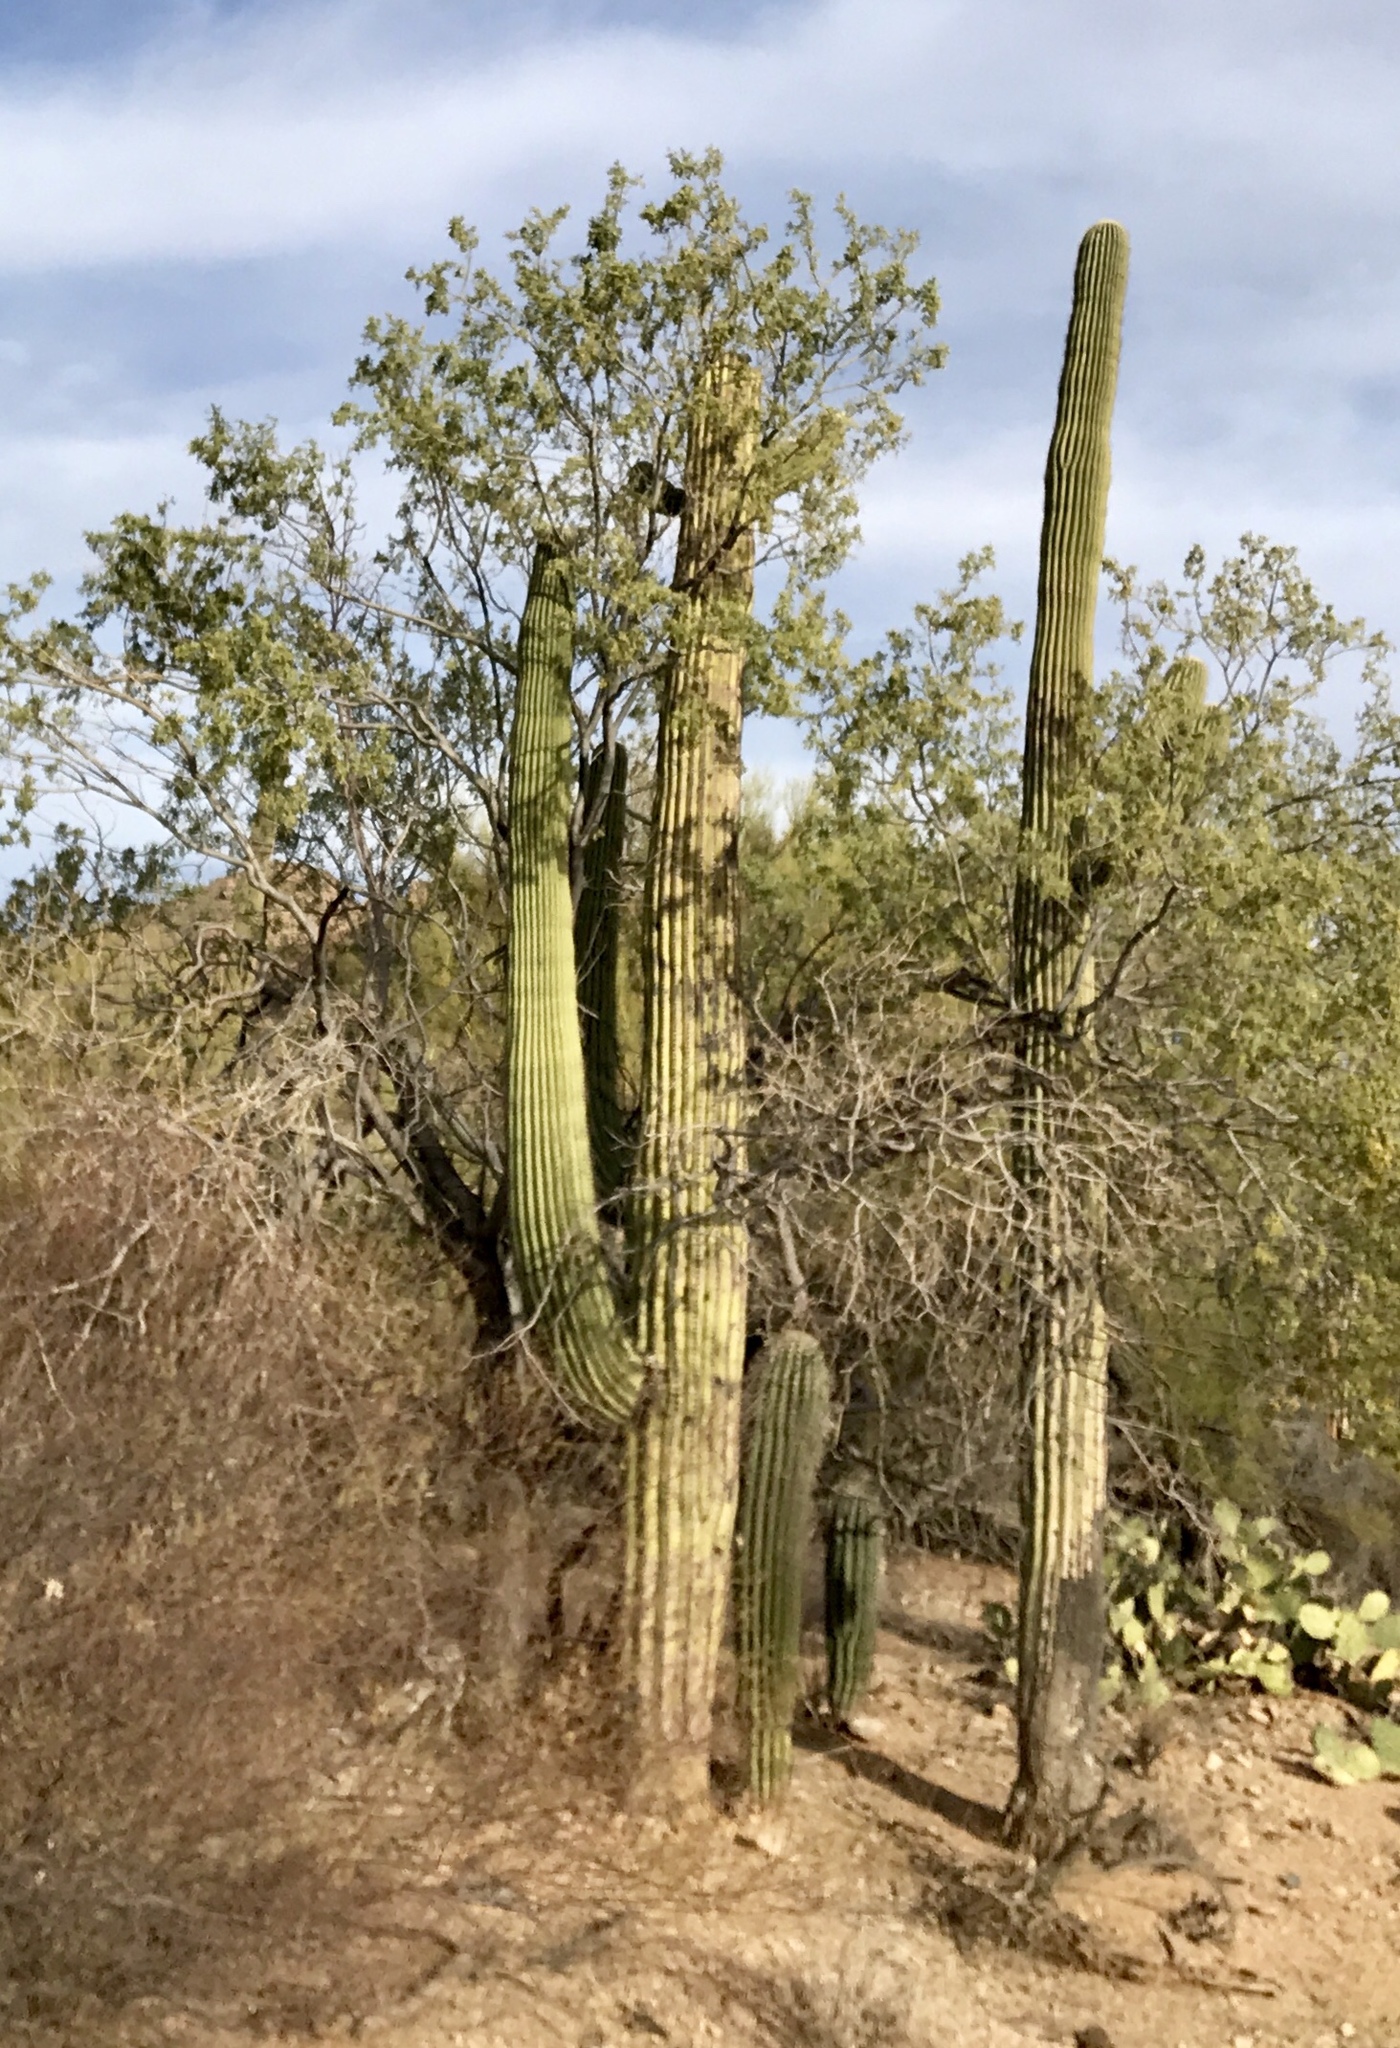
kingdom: Plantae
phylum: Tracheophyta
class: Magnoliopsida
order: Caryophyllales
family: Cactaceae
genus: Carnegiea
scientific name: Carnegiea gigantea
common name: Saguaro
